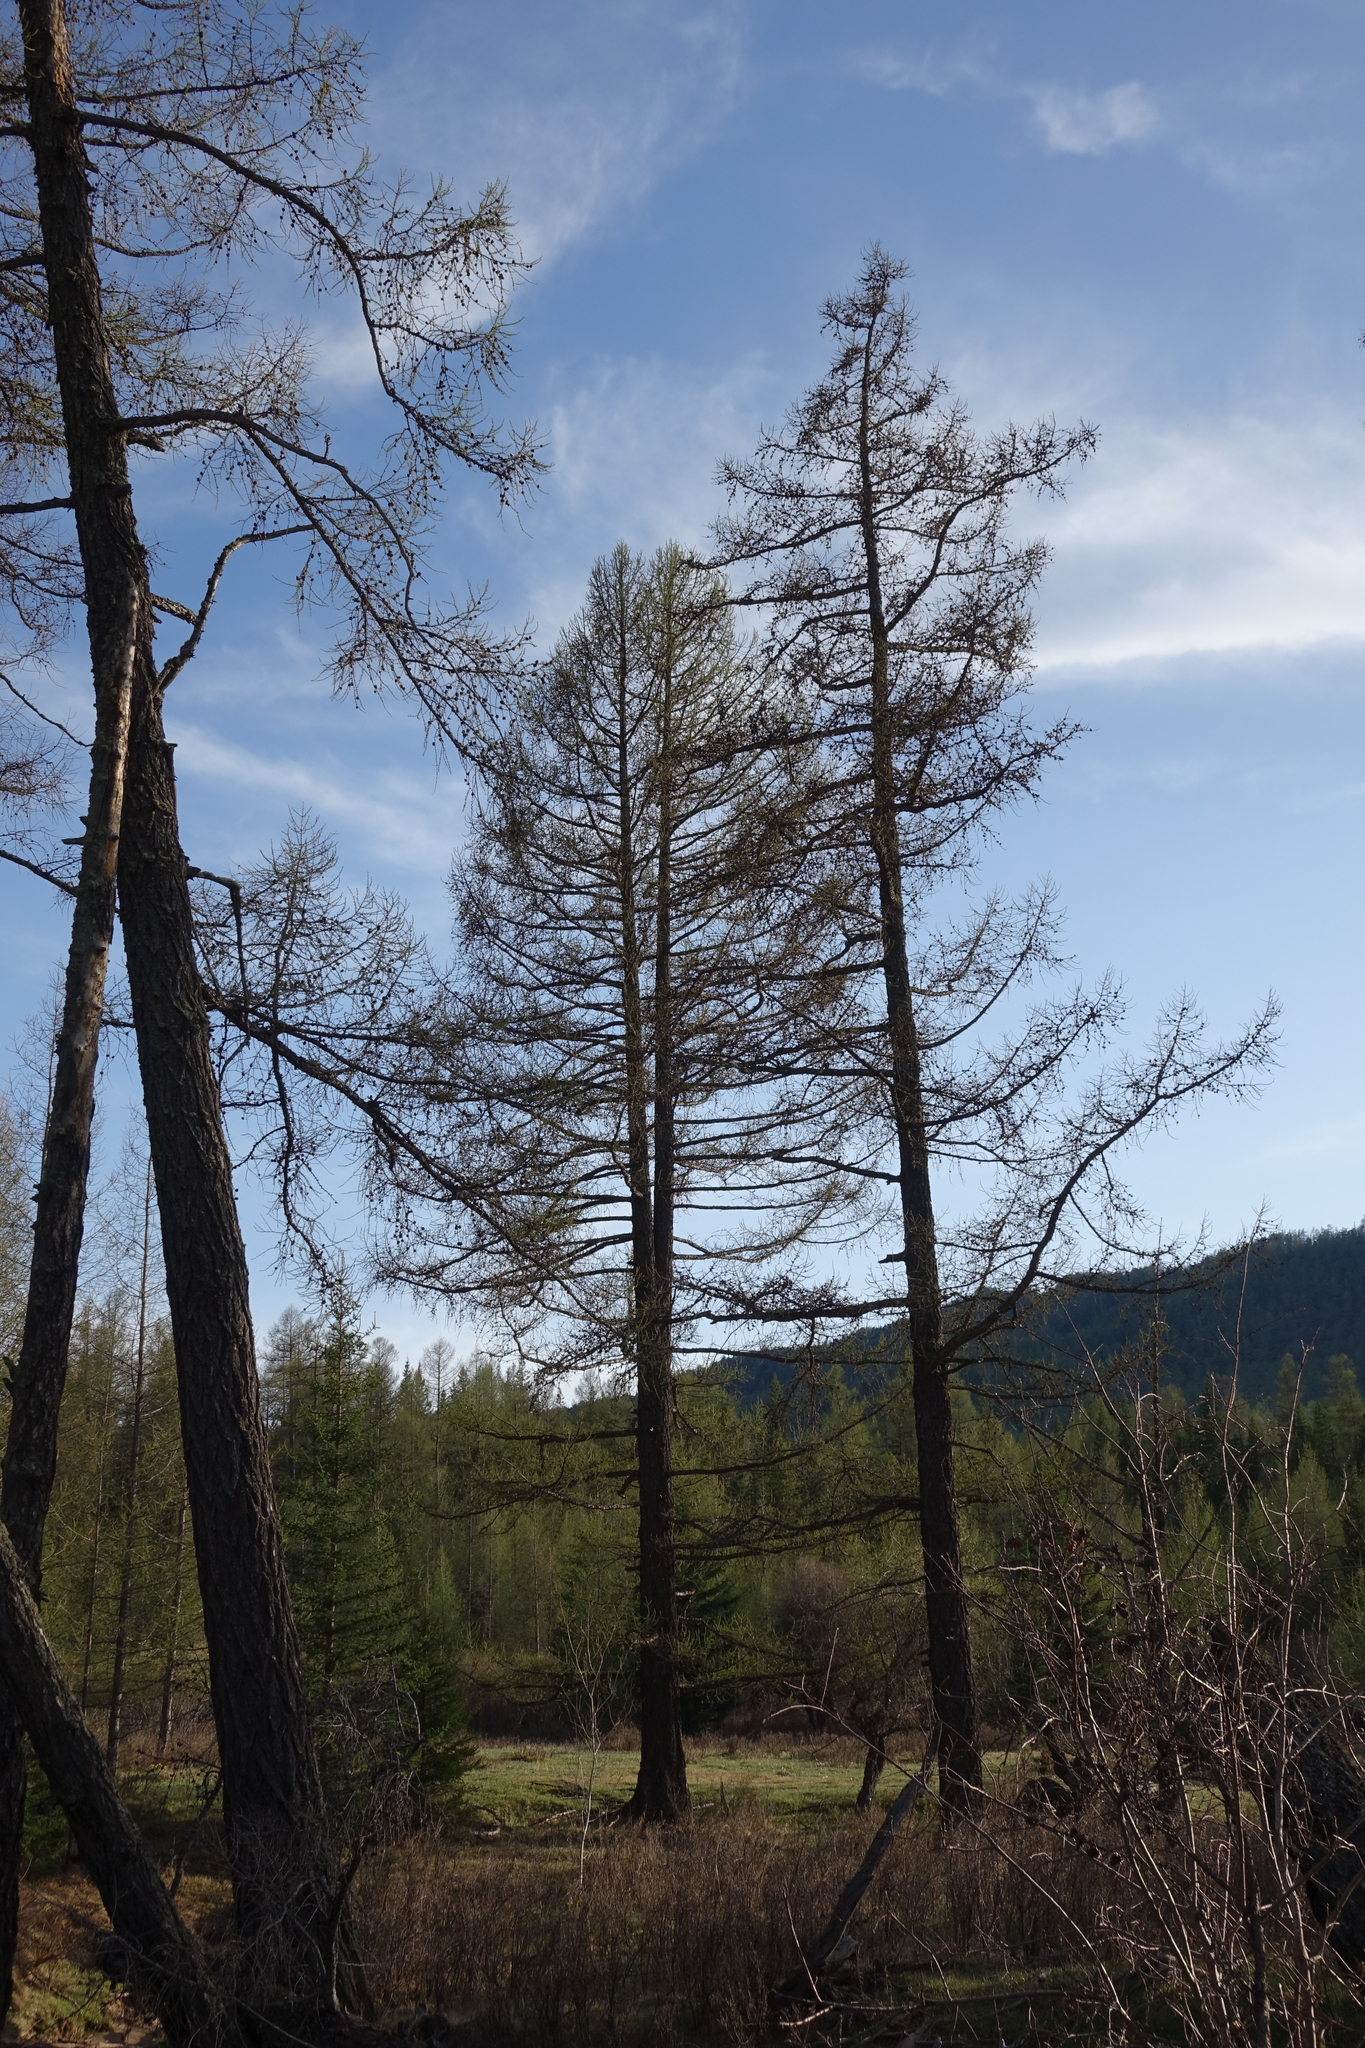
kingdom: Plantae
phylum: Tracheophyta
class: Pinopsida
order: Pinales
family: Pinaceae
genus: Larix
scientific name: Larix sibirica
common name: Siberian larch
